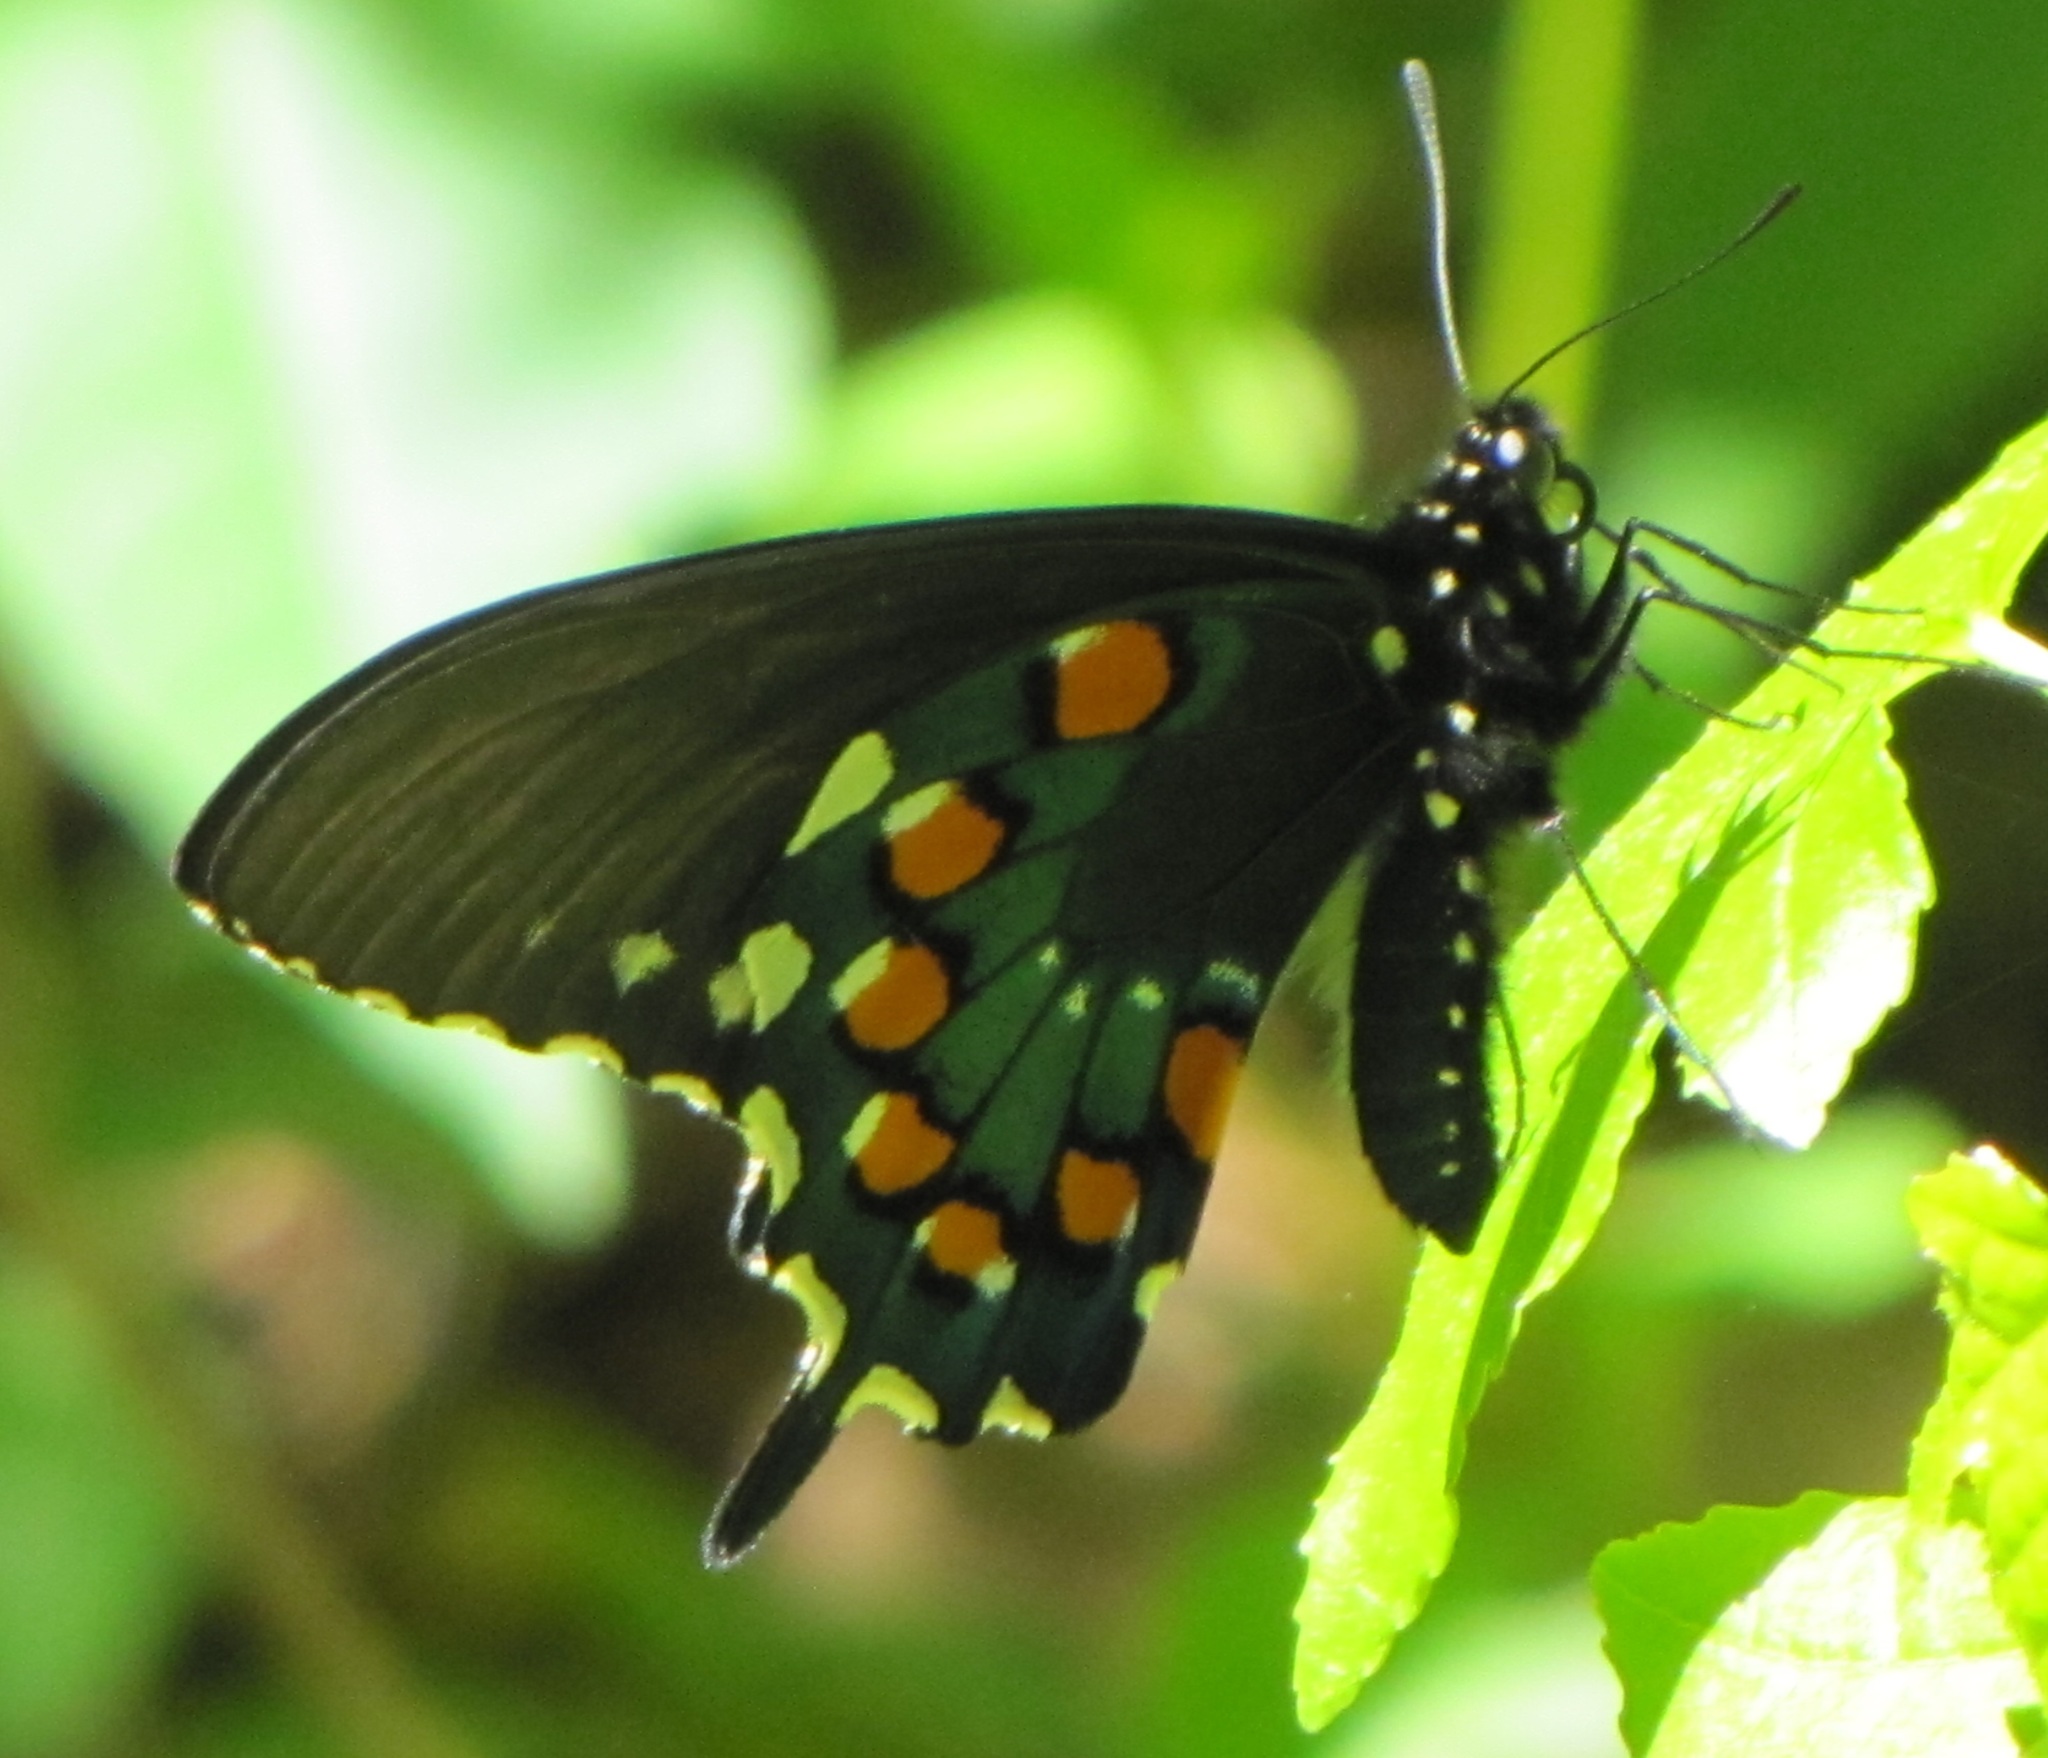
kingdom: Animalia
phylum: Arthropoda
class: Insecta
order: Lepidoptera
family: Papilionidae
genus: Battus
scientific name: Battus philenor
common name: Pipevine swallowtail
